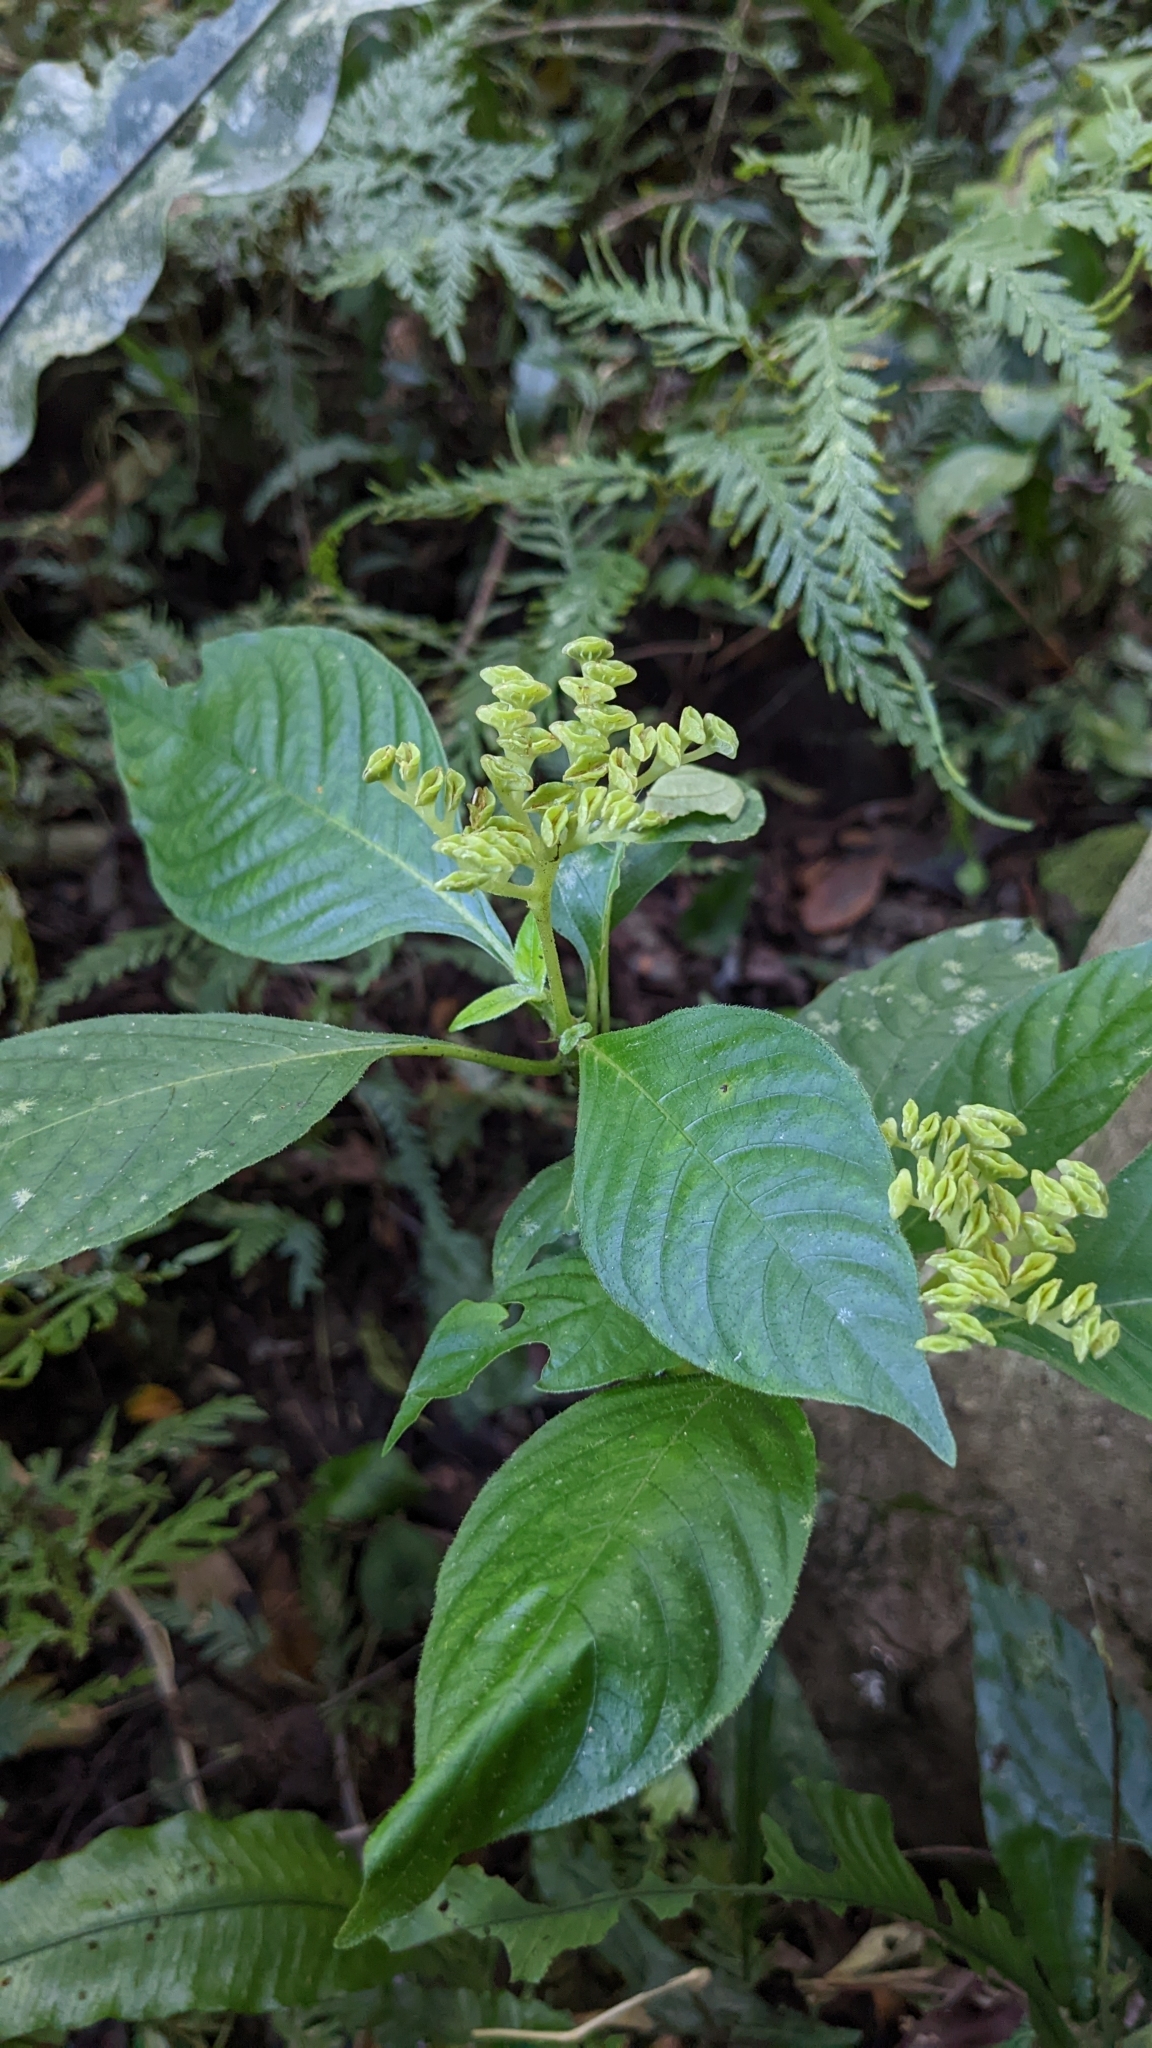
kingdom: Plantae
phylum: Tracheophyta
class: Magnoliopsida
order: Gentianales
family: Rubiaceae
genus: Ophiorrhiza
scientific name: Ophiorrhiza kuroiwae
